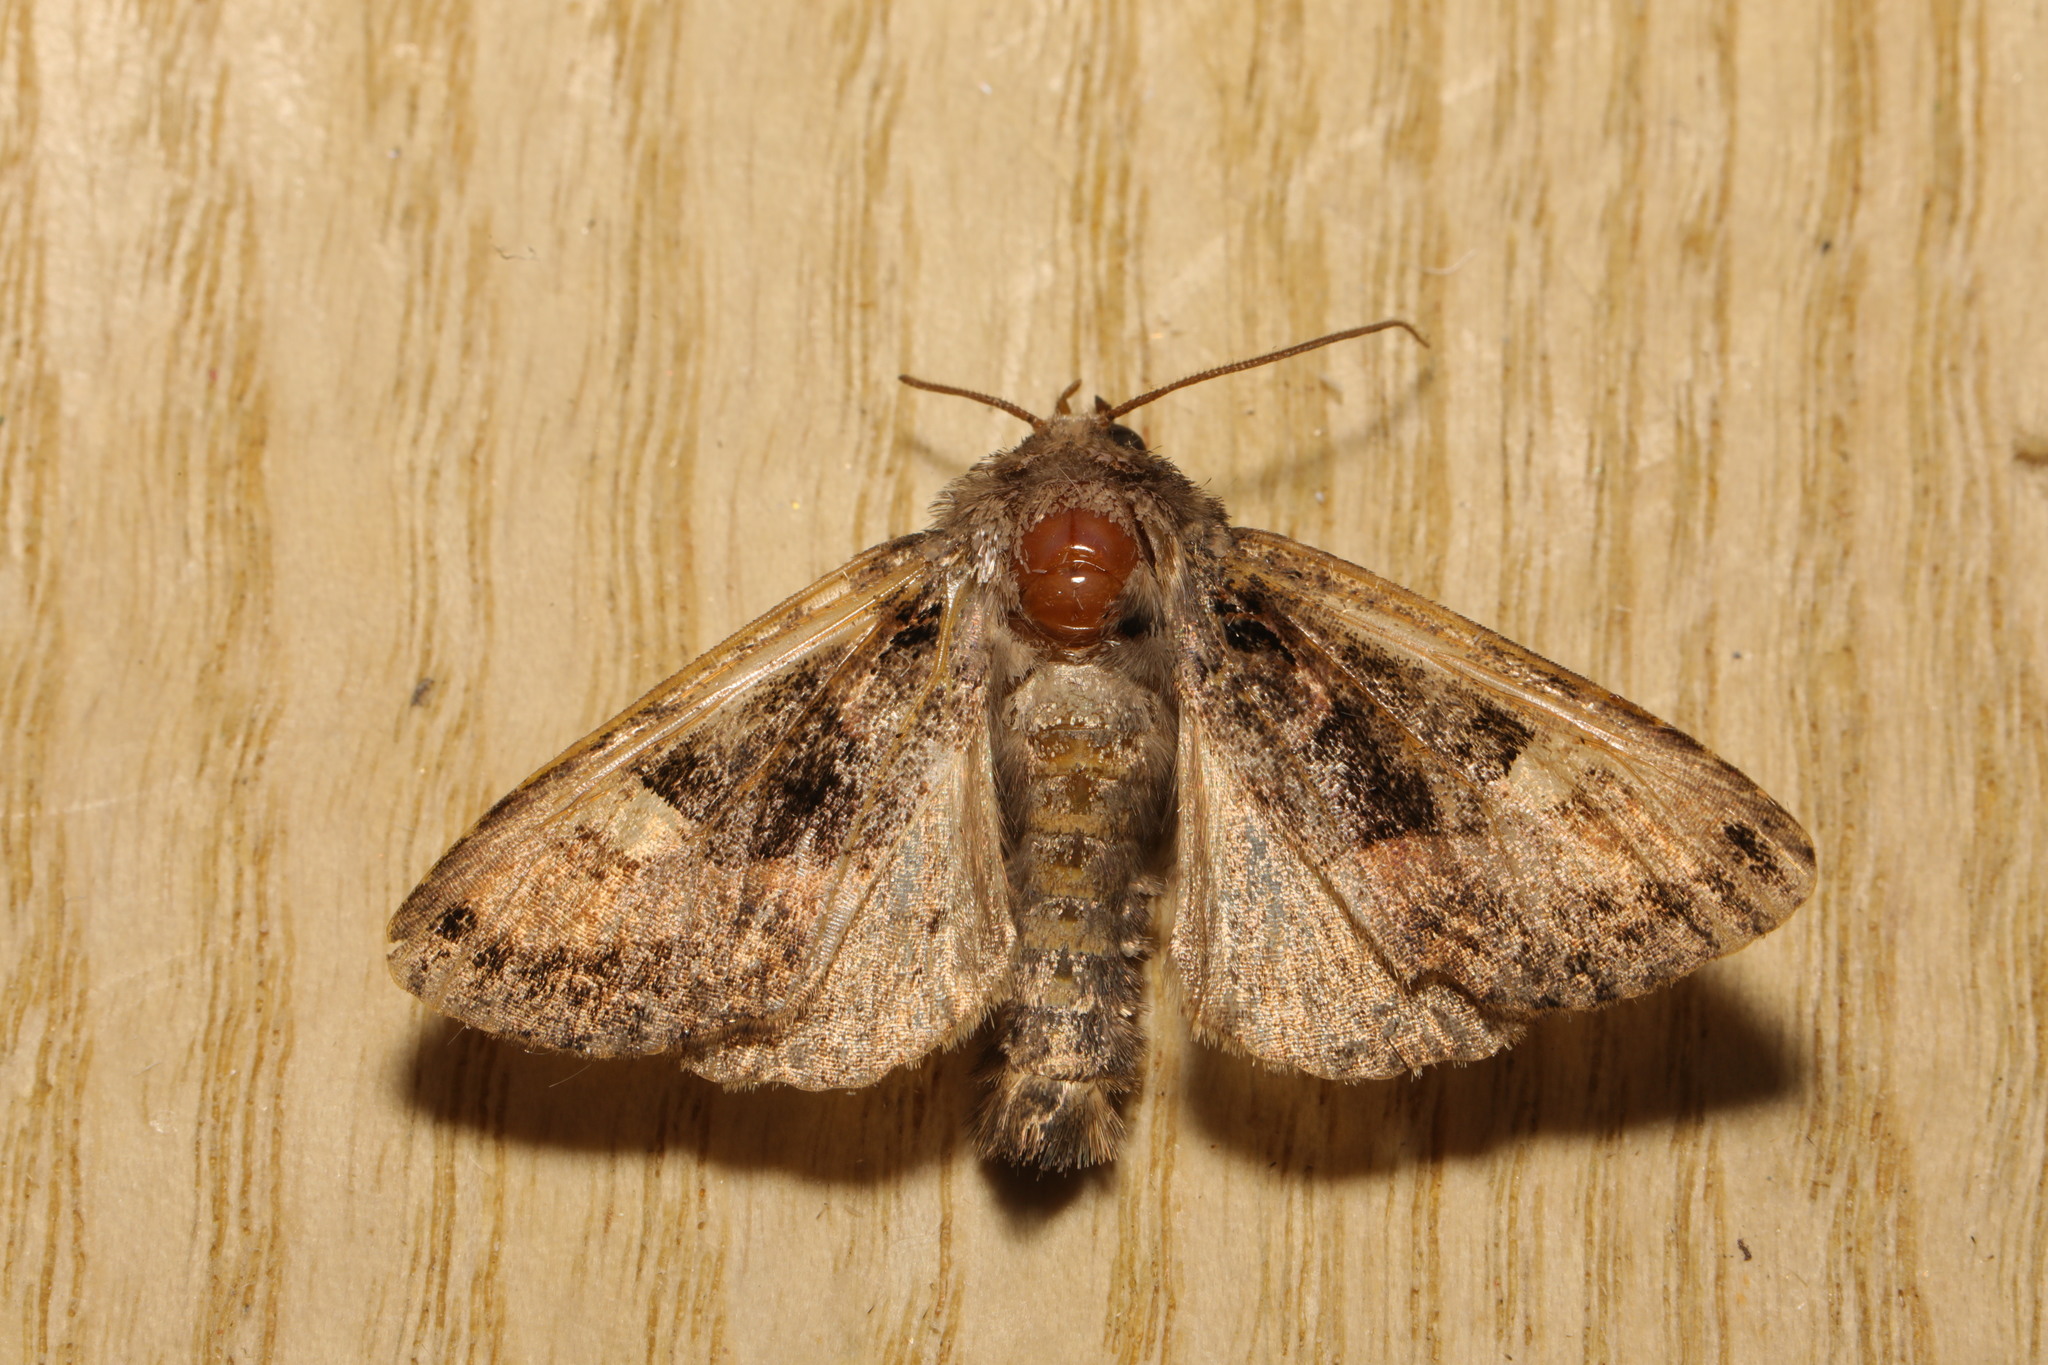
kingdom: Animalia
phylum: Arthropoda
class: Insecta
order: Lepidoptera
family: Noctuidae
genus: Euplexia
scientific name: Euplexia lucipara
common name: Small angle shades
